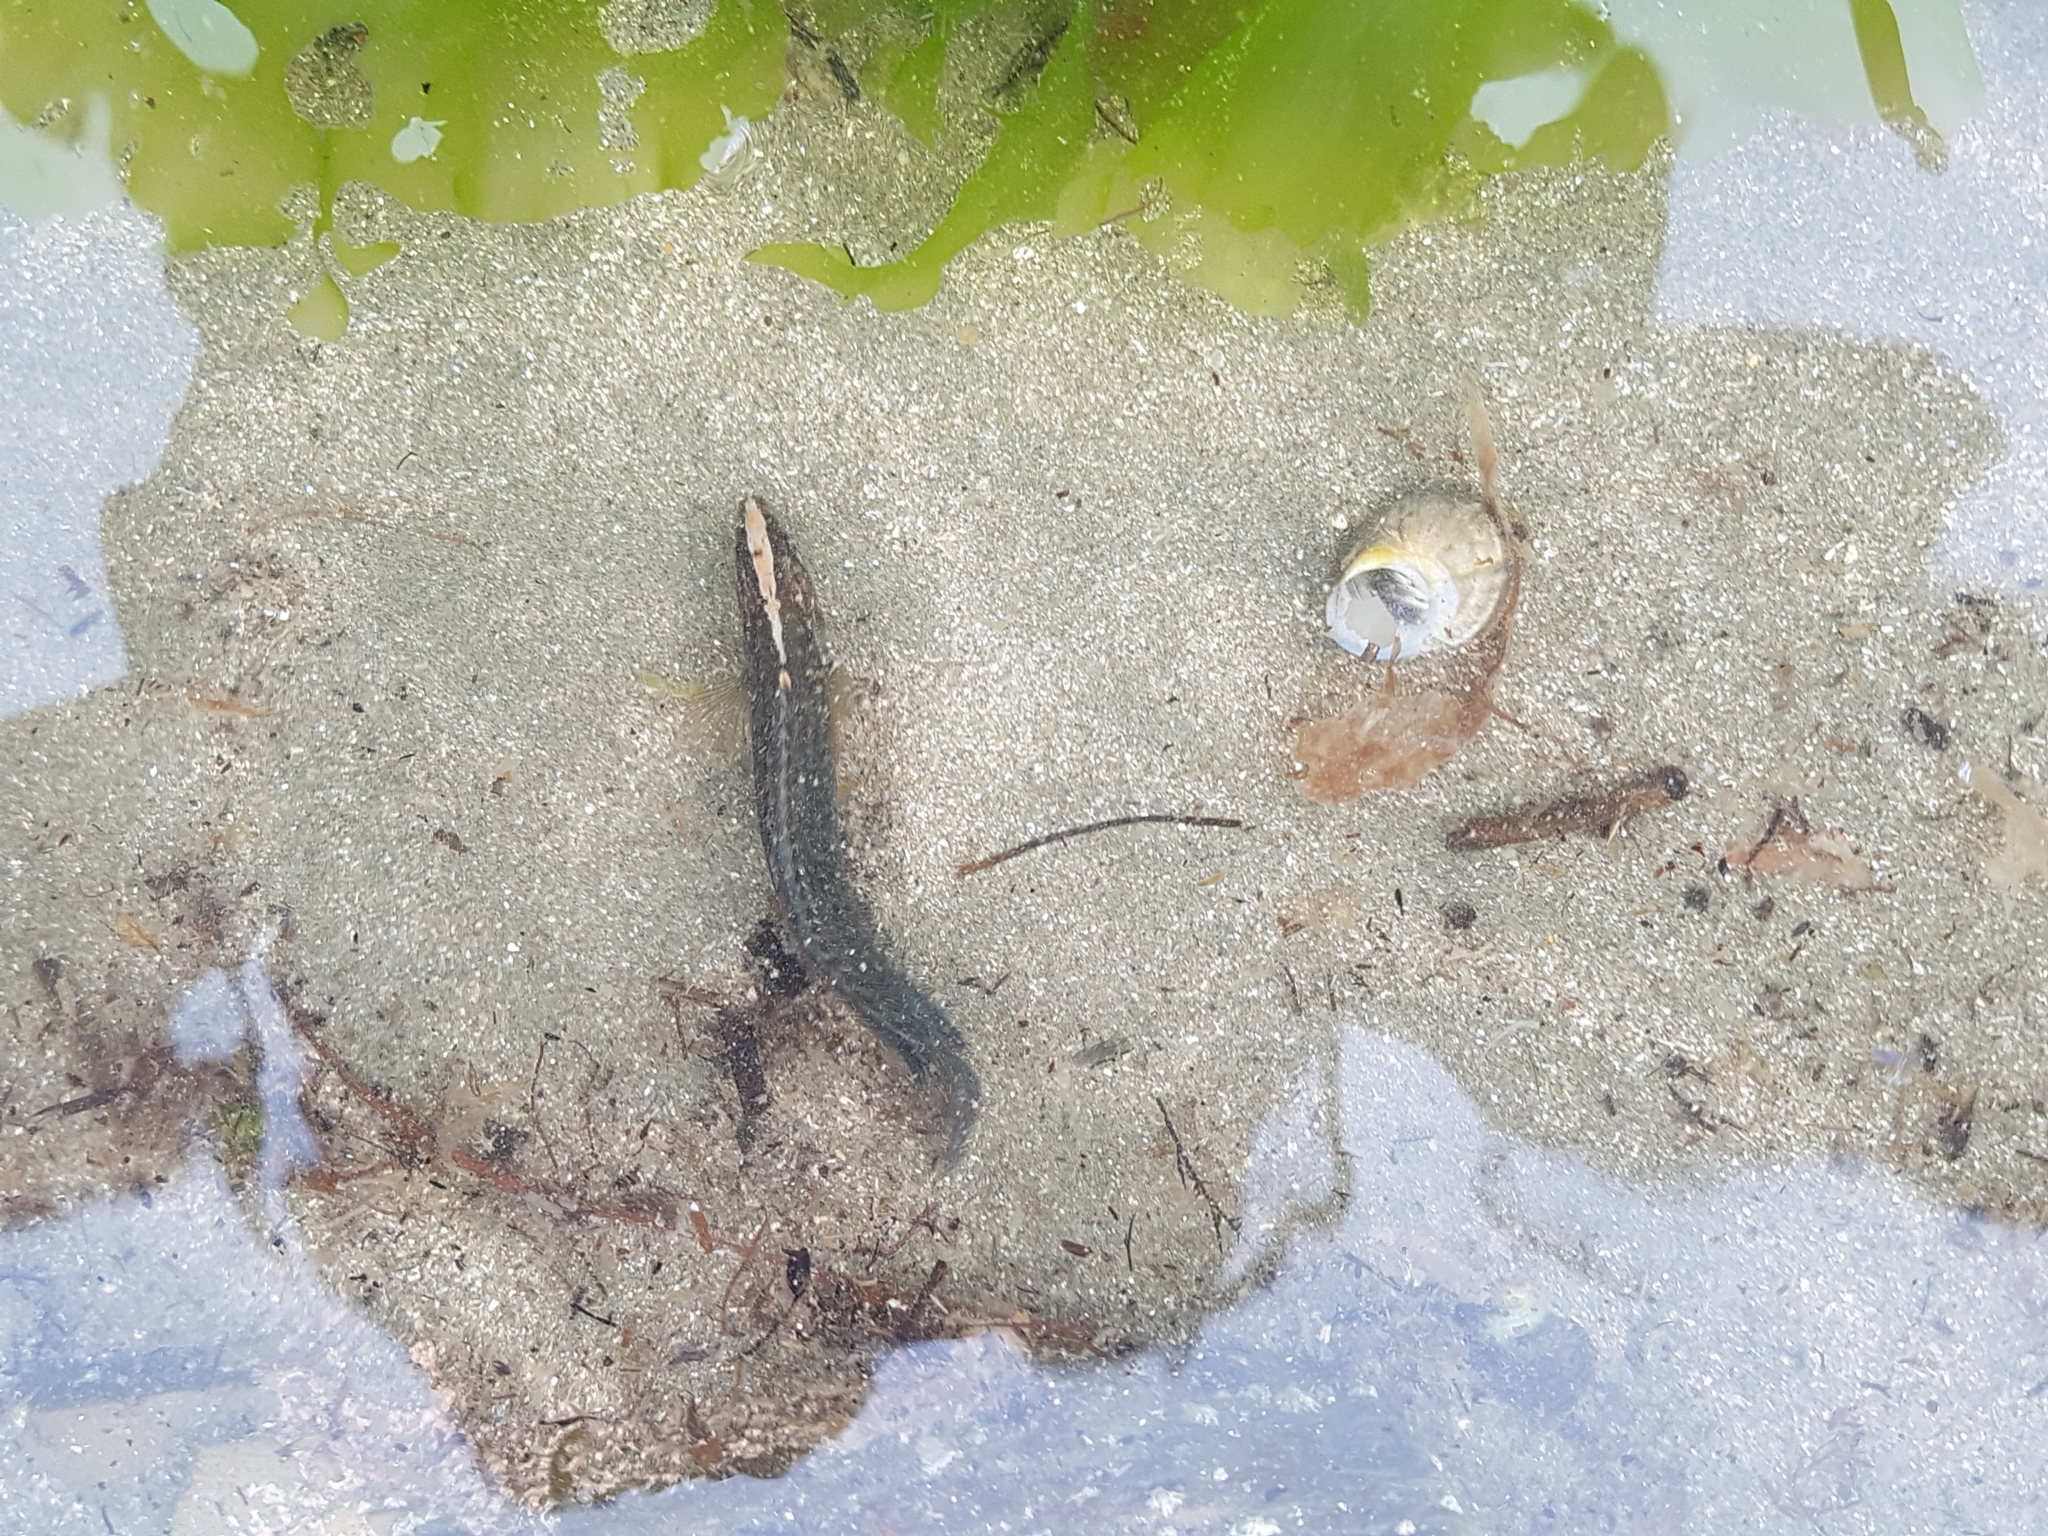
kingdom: Animalia
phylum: Chordata
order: Perciformes
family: Plesiopidae
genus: Acanthoclinus
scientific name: Acanthoclinus fuscus
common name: Olive rockfish
